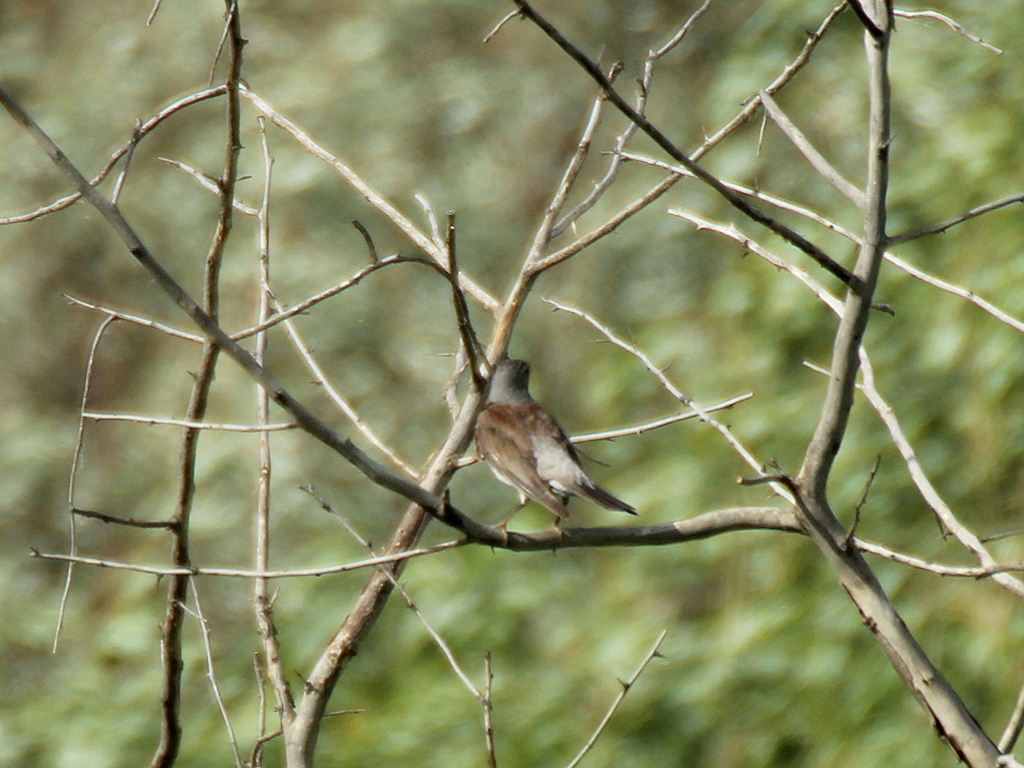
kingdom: Animalia
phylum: Chordata
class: Aves
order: Passeriformes
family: Turdidae
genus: Turdus
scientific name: Turdus pilaris
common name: Fieldfare
